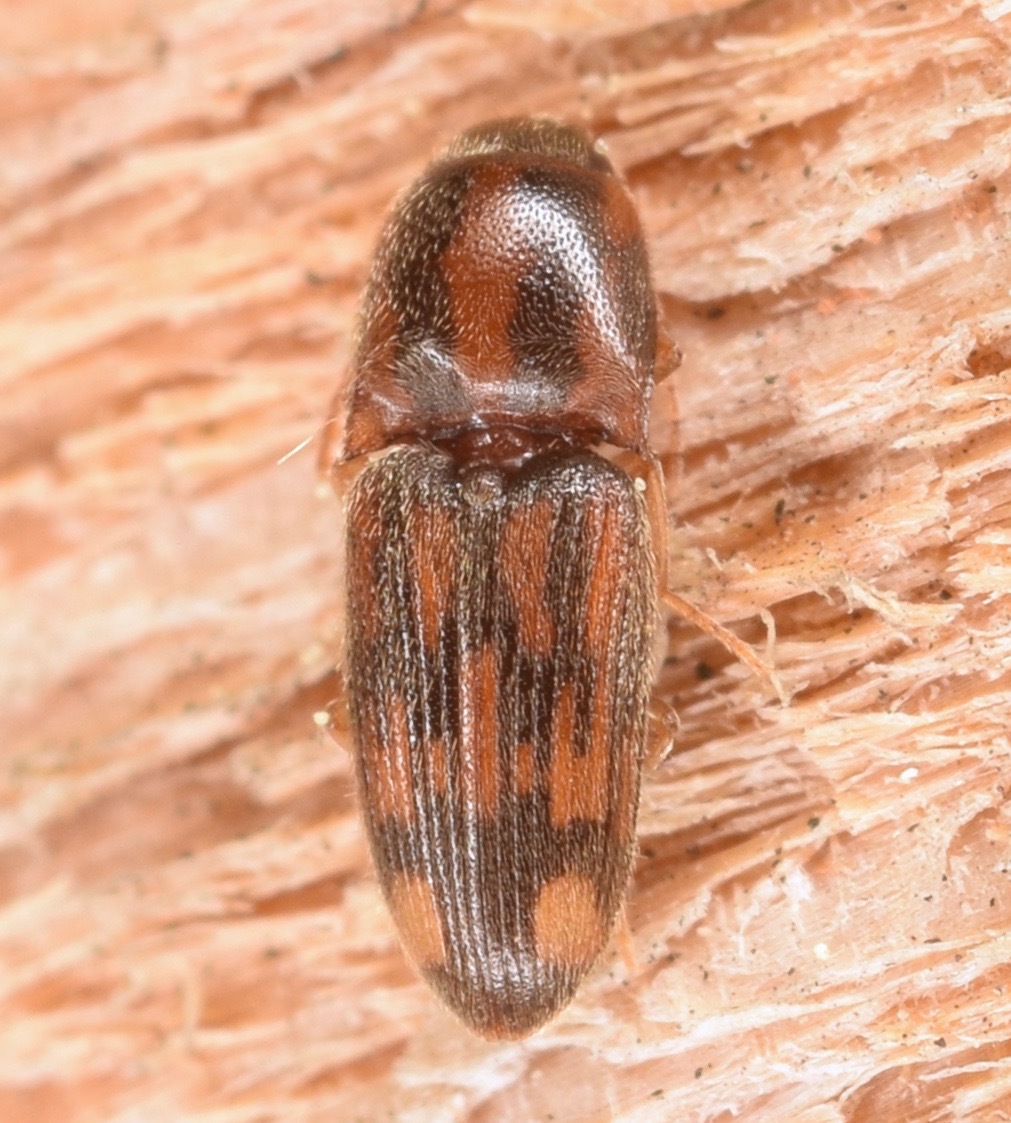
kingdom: Animalia
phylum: Arthropoda
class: Insecta
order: Coleoptera
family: Elateridae
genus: Monocrepidius
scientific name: Monocrepidius bellus
